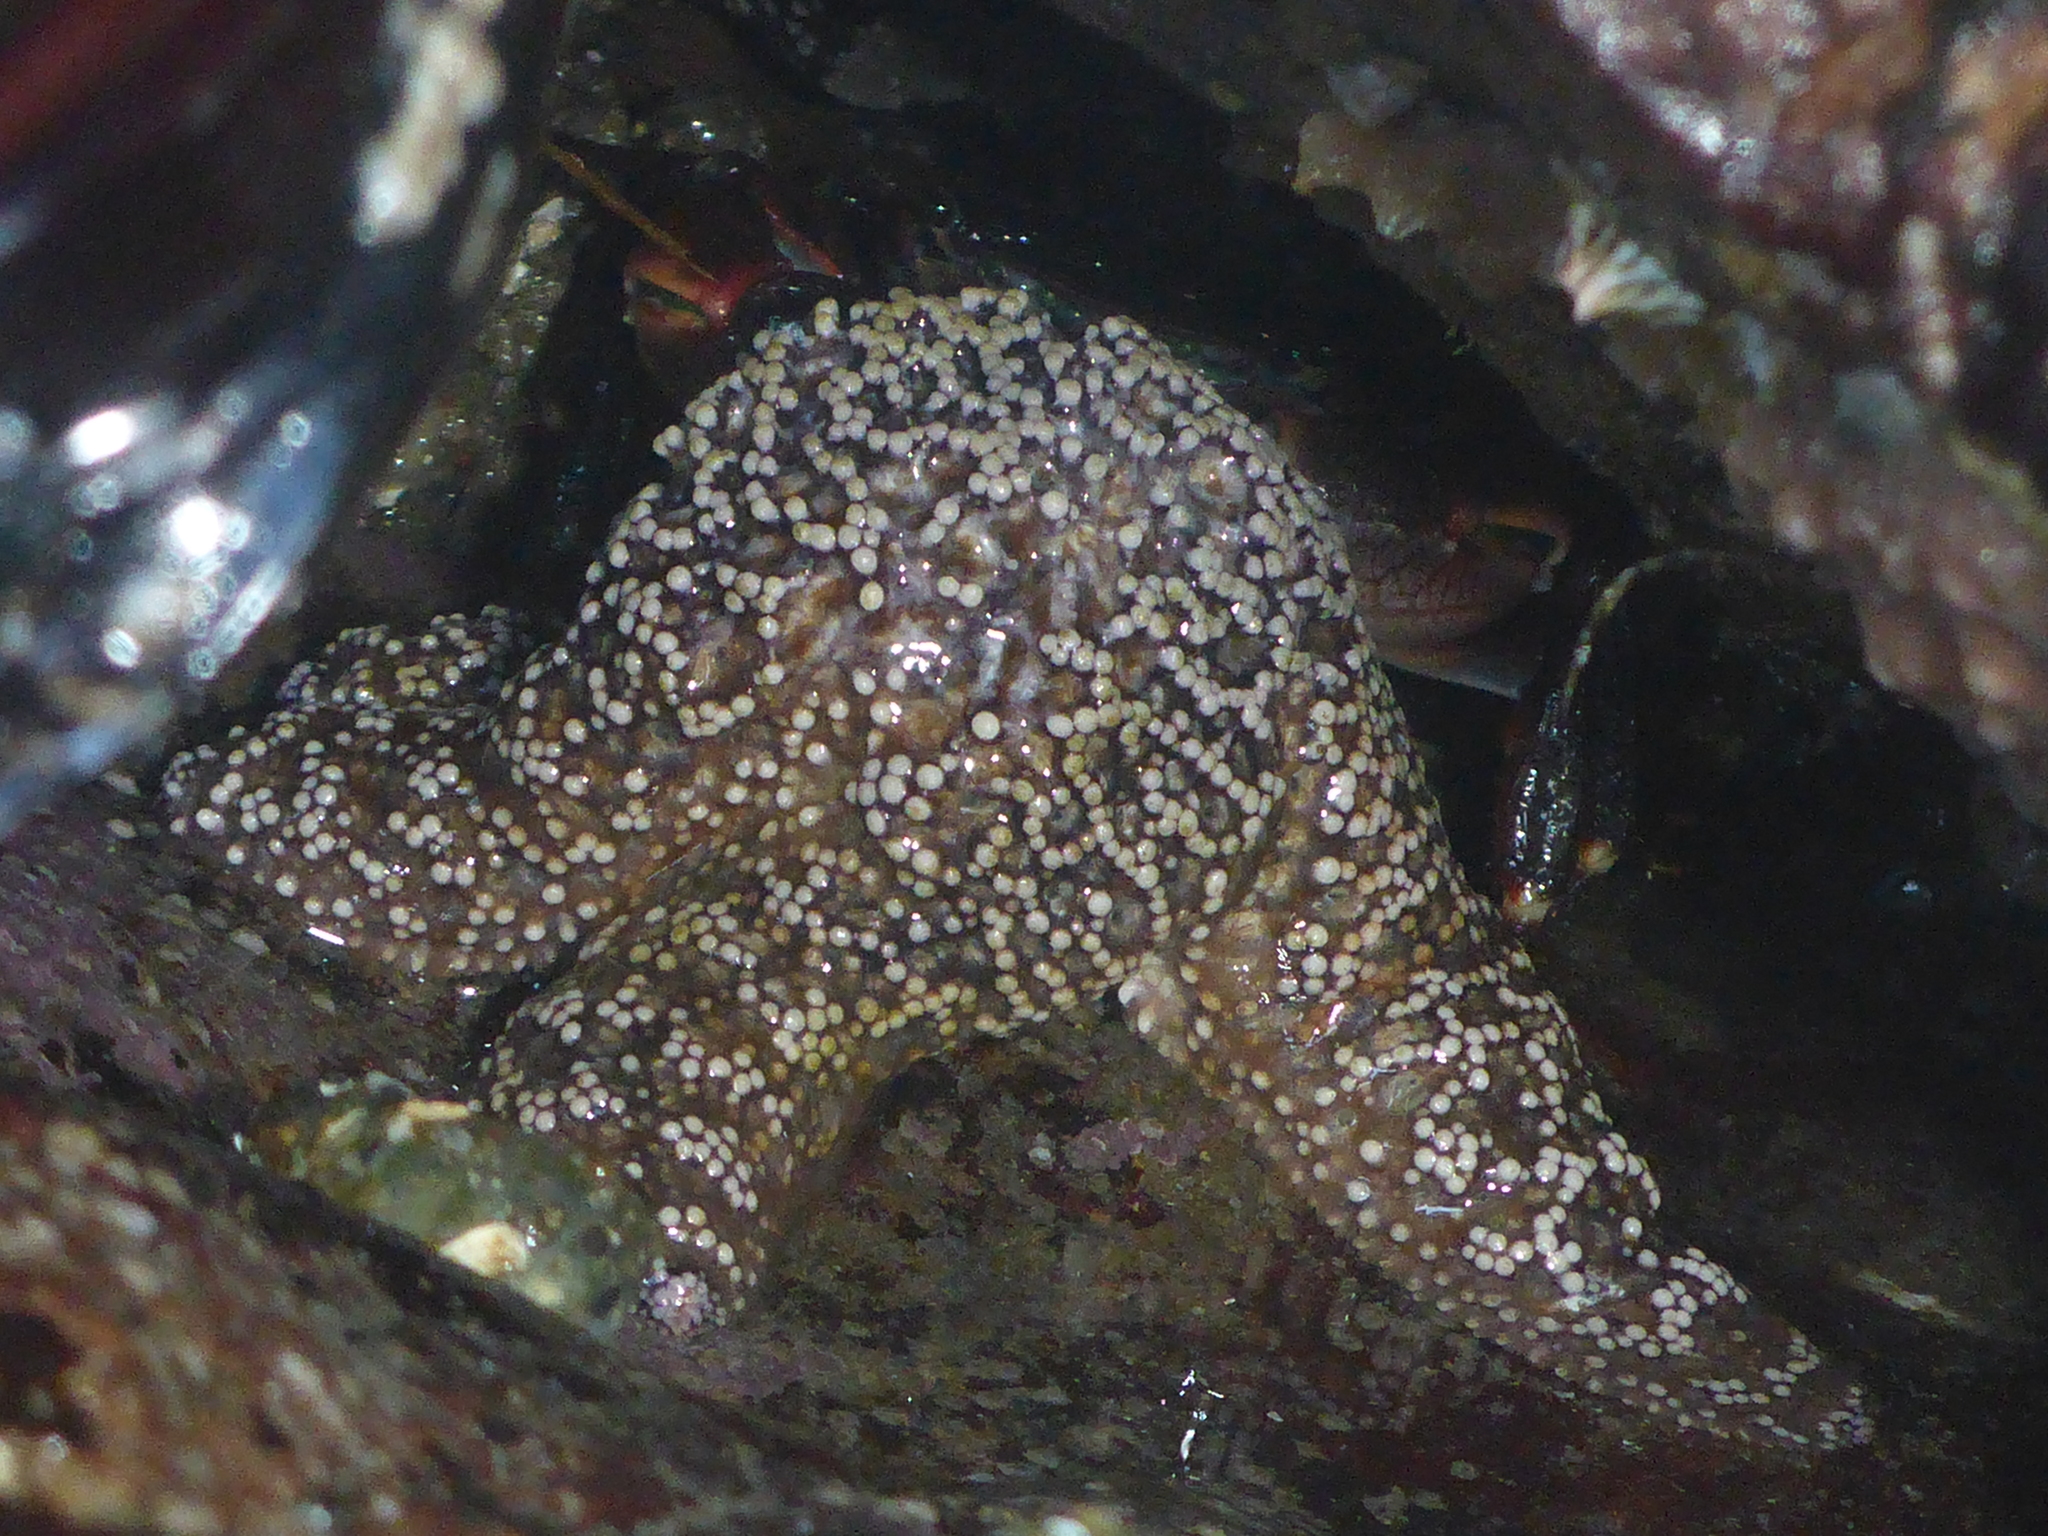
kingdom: Animalia
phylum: Echinodermata
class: Asteroidea
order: Forcipulatida
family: Asteriidae
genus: Pisaster
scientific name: Pisaster ochraceus
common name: Ochre stars
